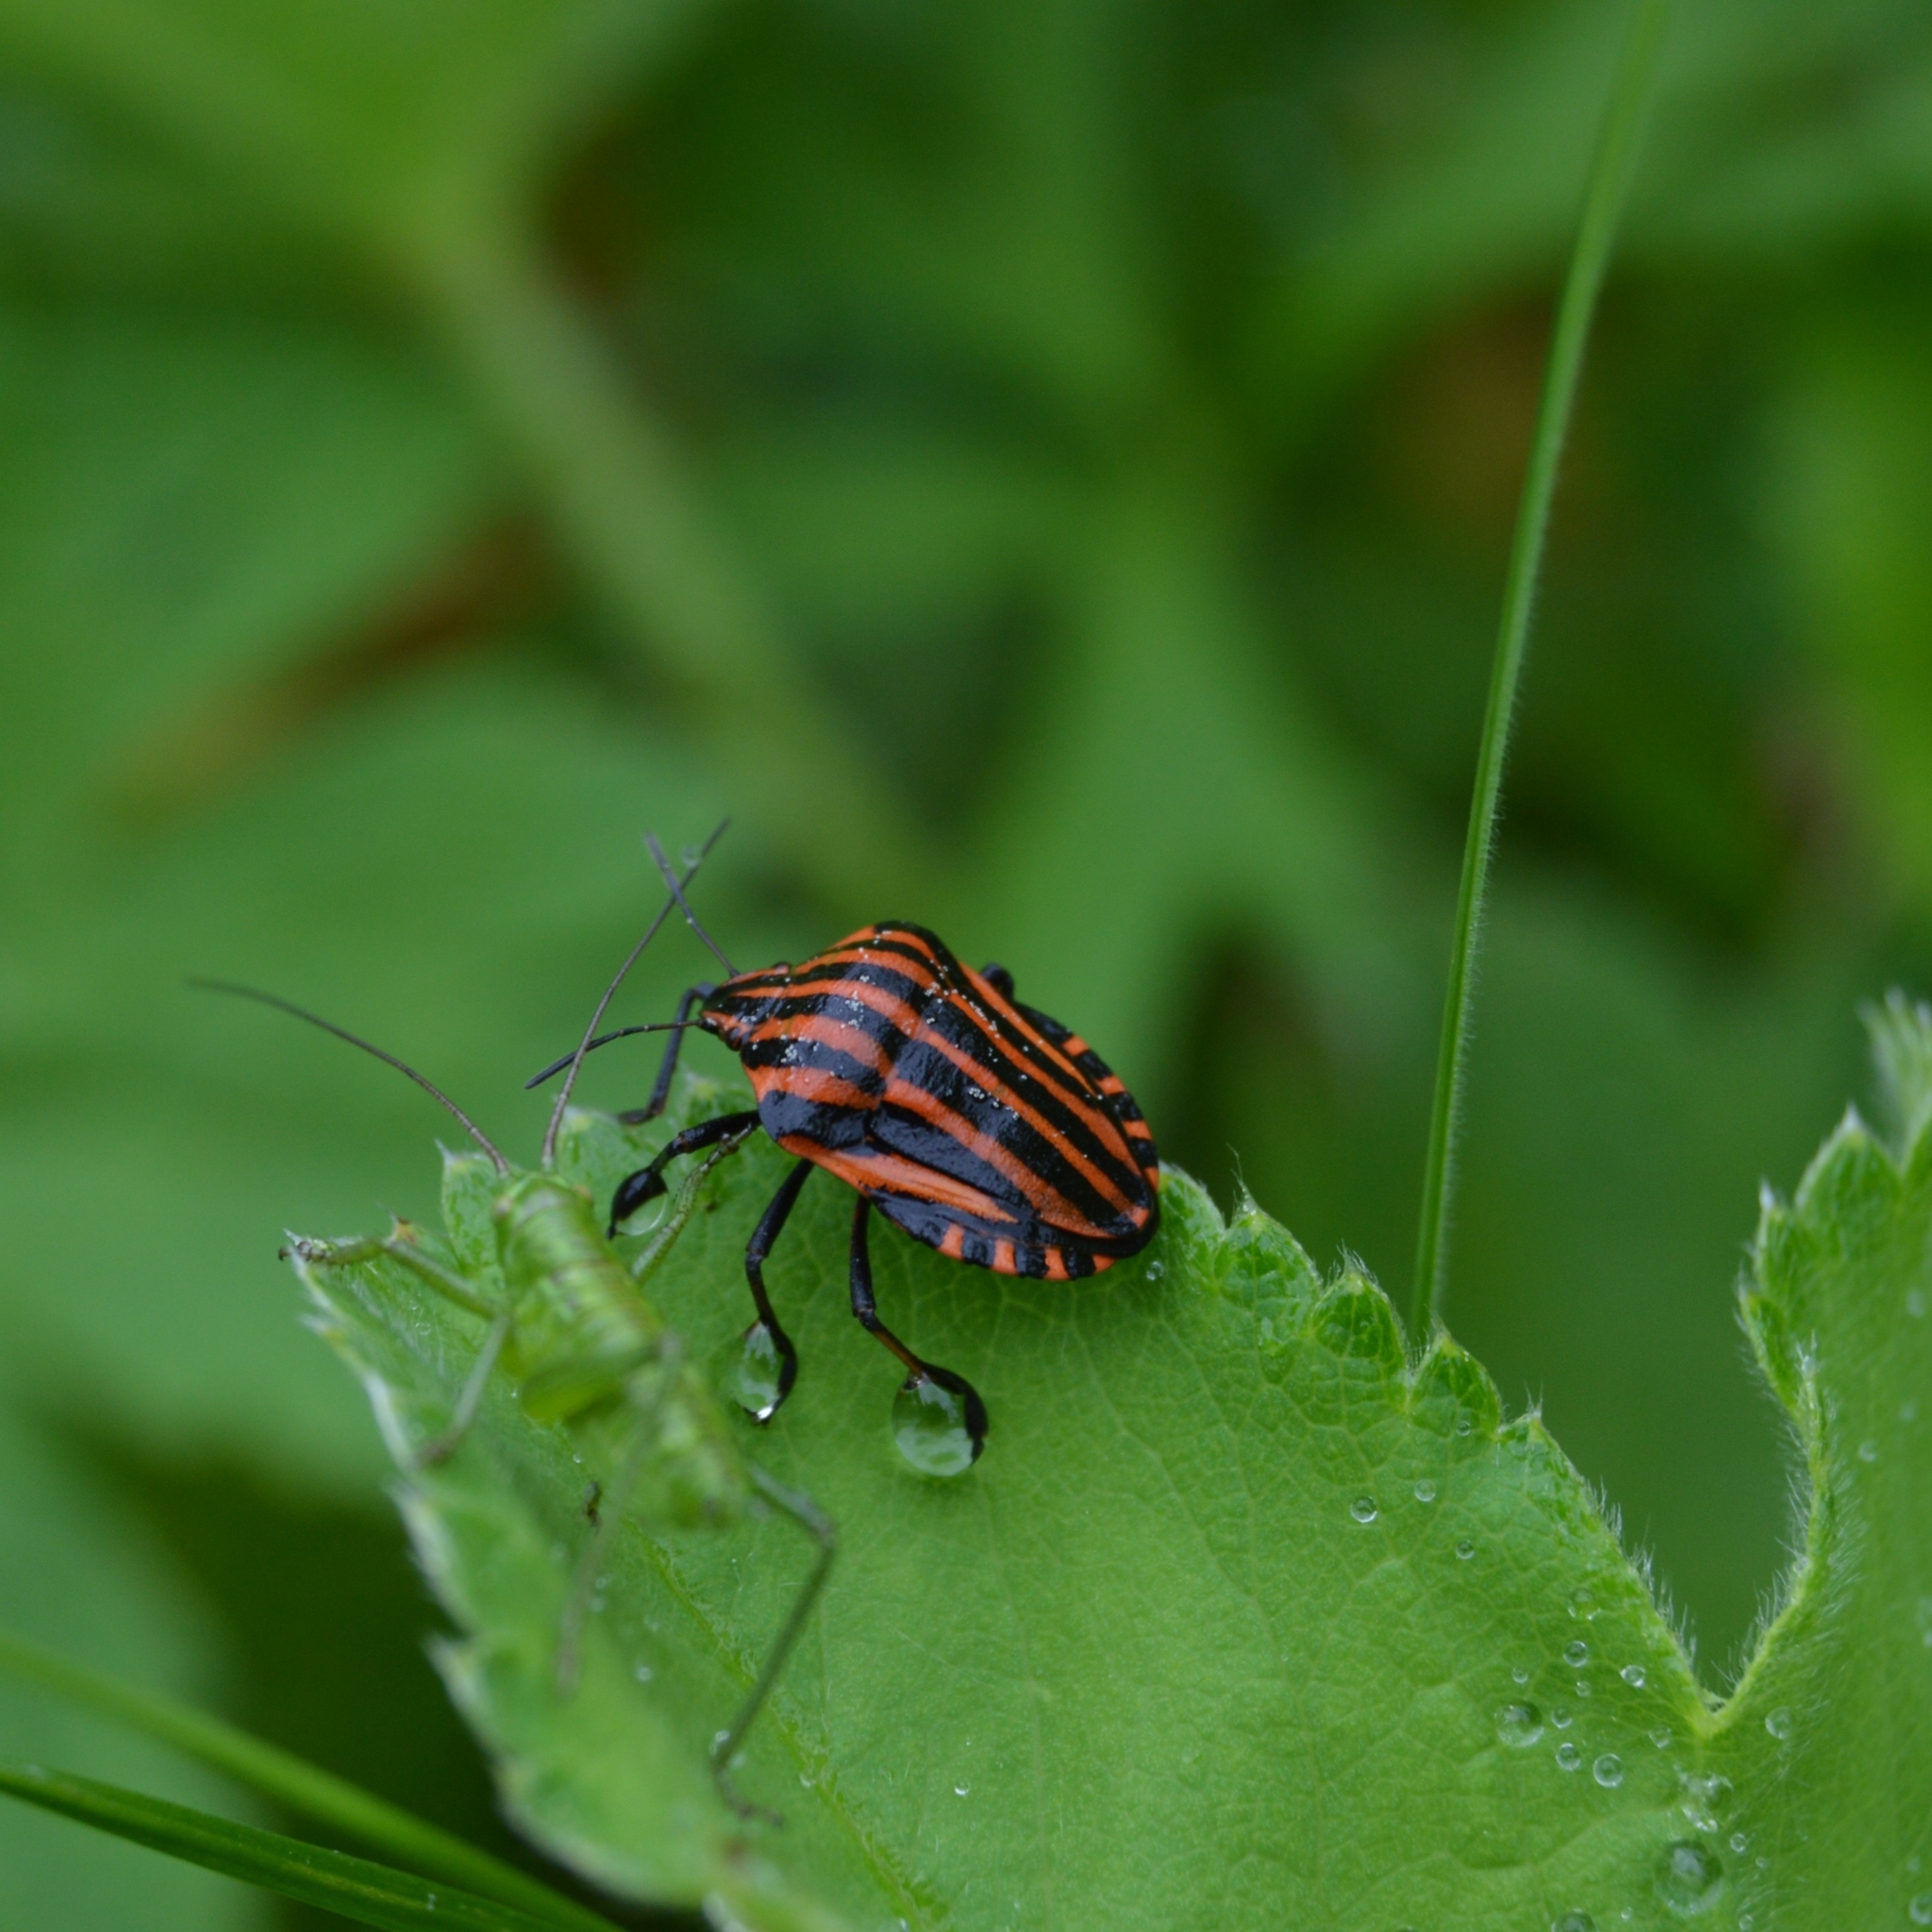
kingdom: Animalia
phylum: Arthropoda
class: Insecta
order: Hemiptera
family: Pentatomidae
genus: Graphosoma
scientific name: Graphosoma italicum
